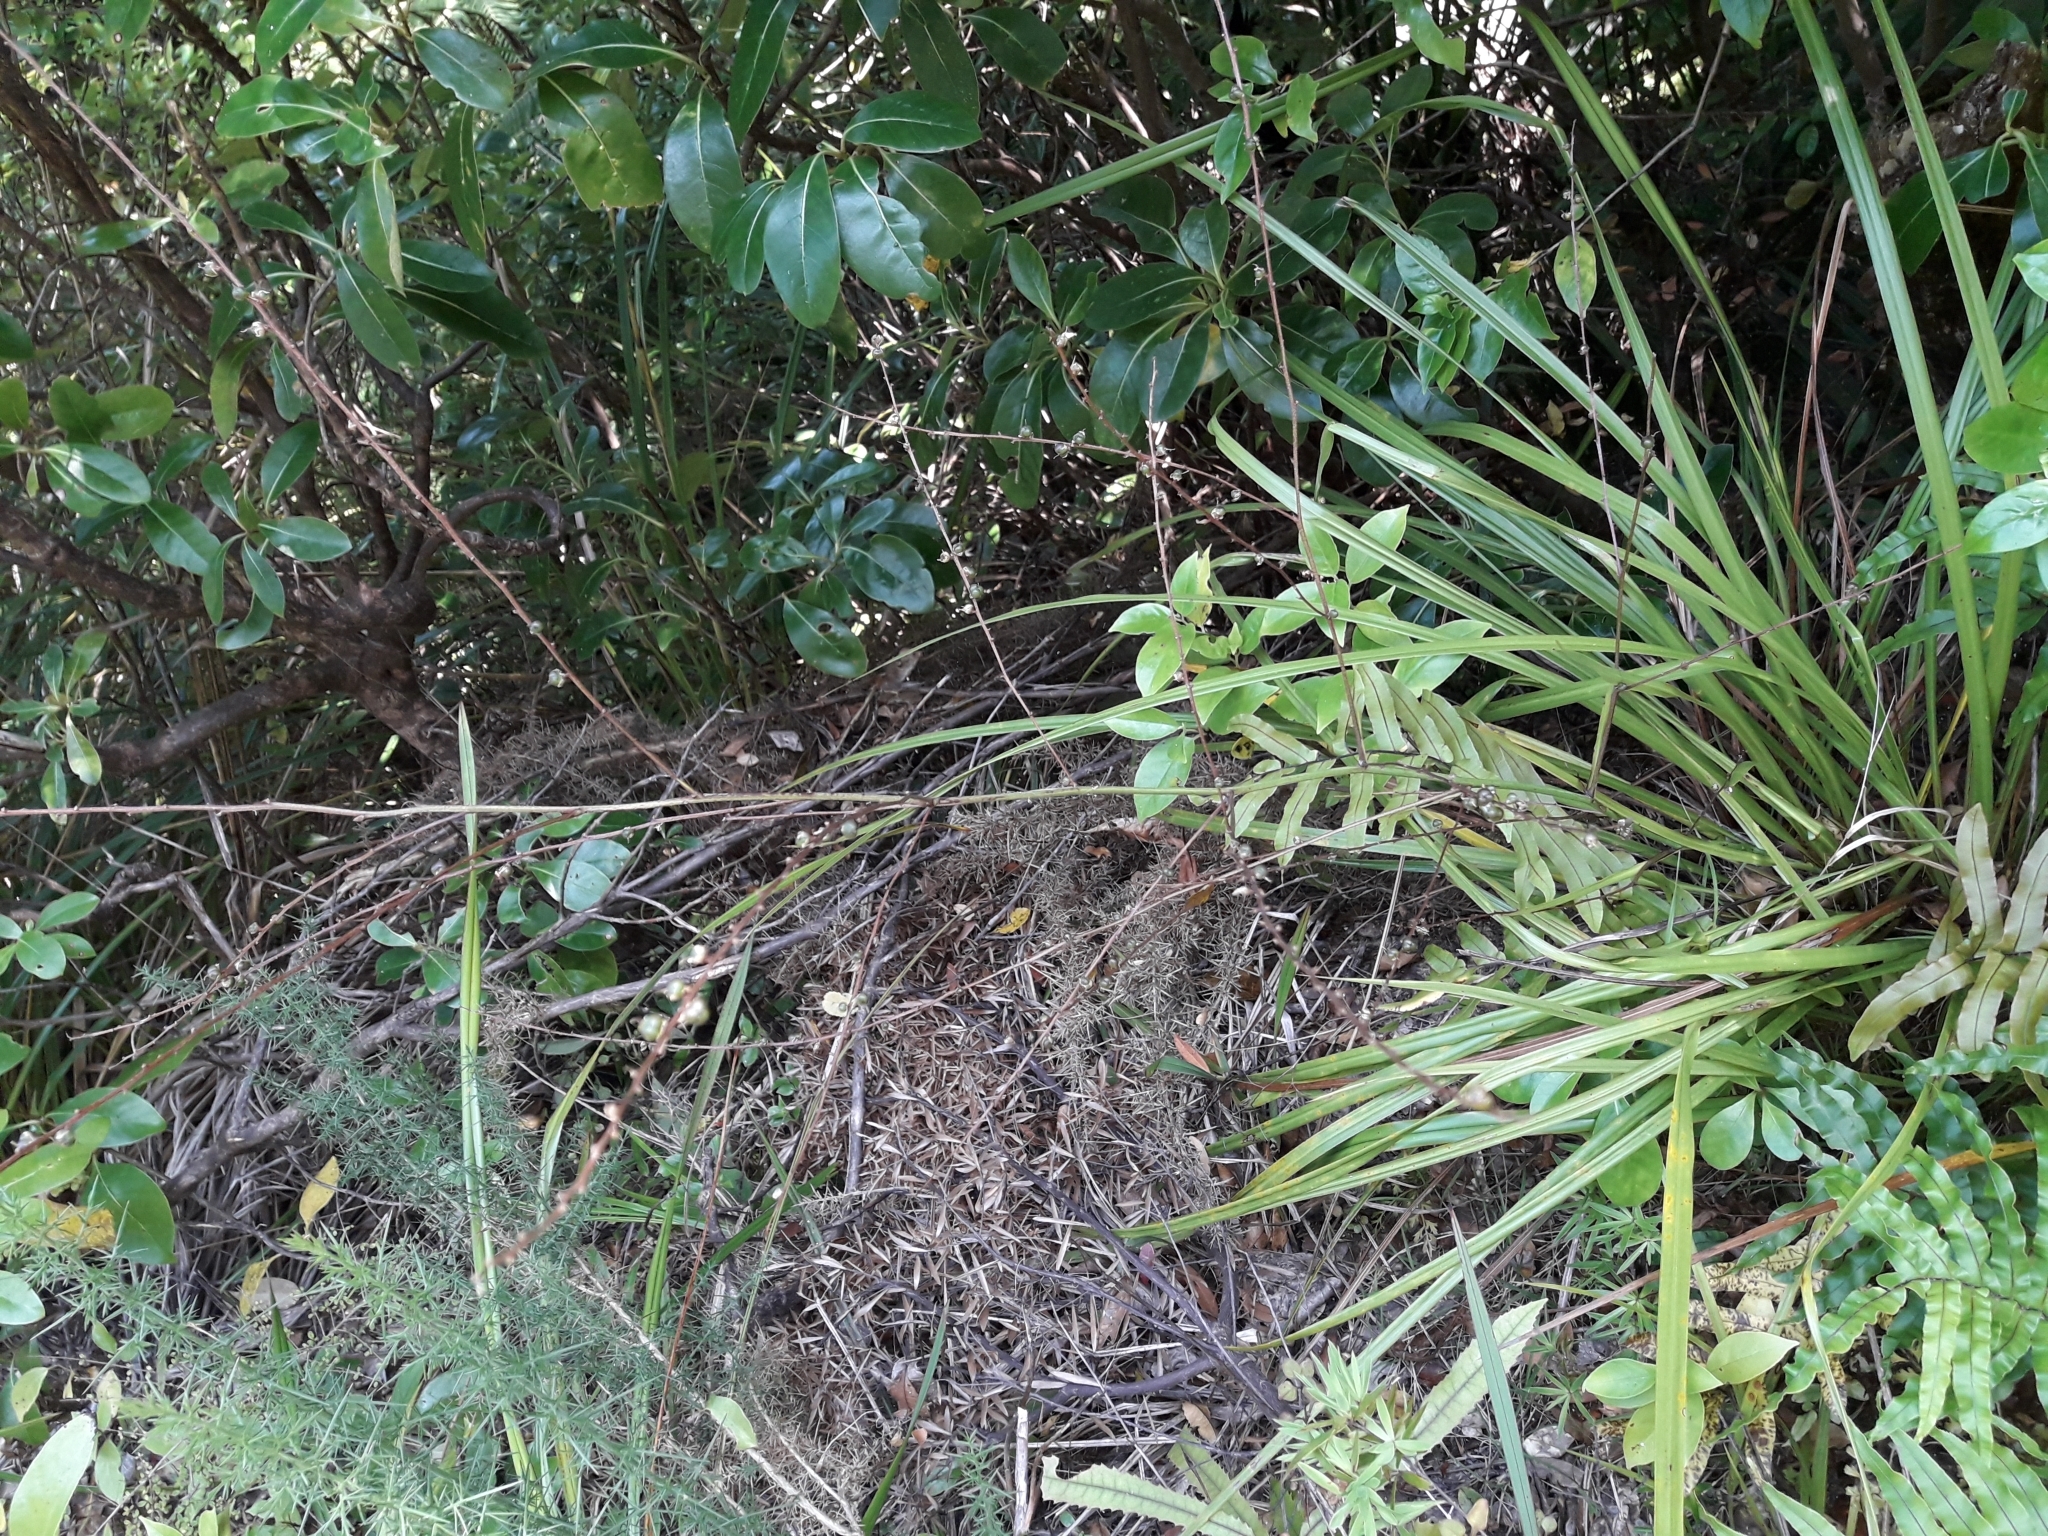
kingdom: Plantae
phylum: Tracheophyta
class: Liliopsida
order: Asparagales
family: Asparagaceae
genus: Cordyline
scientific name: Cordyline pumilio
